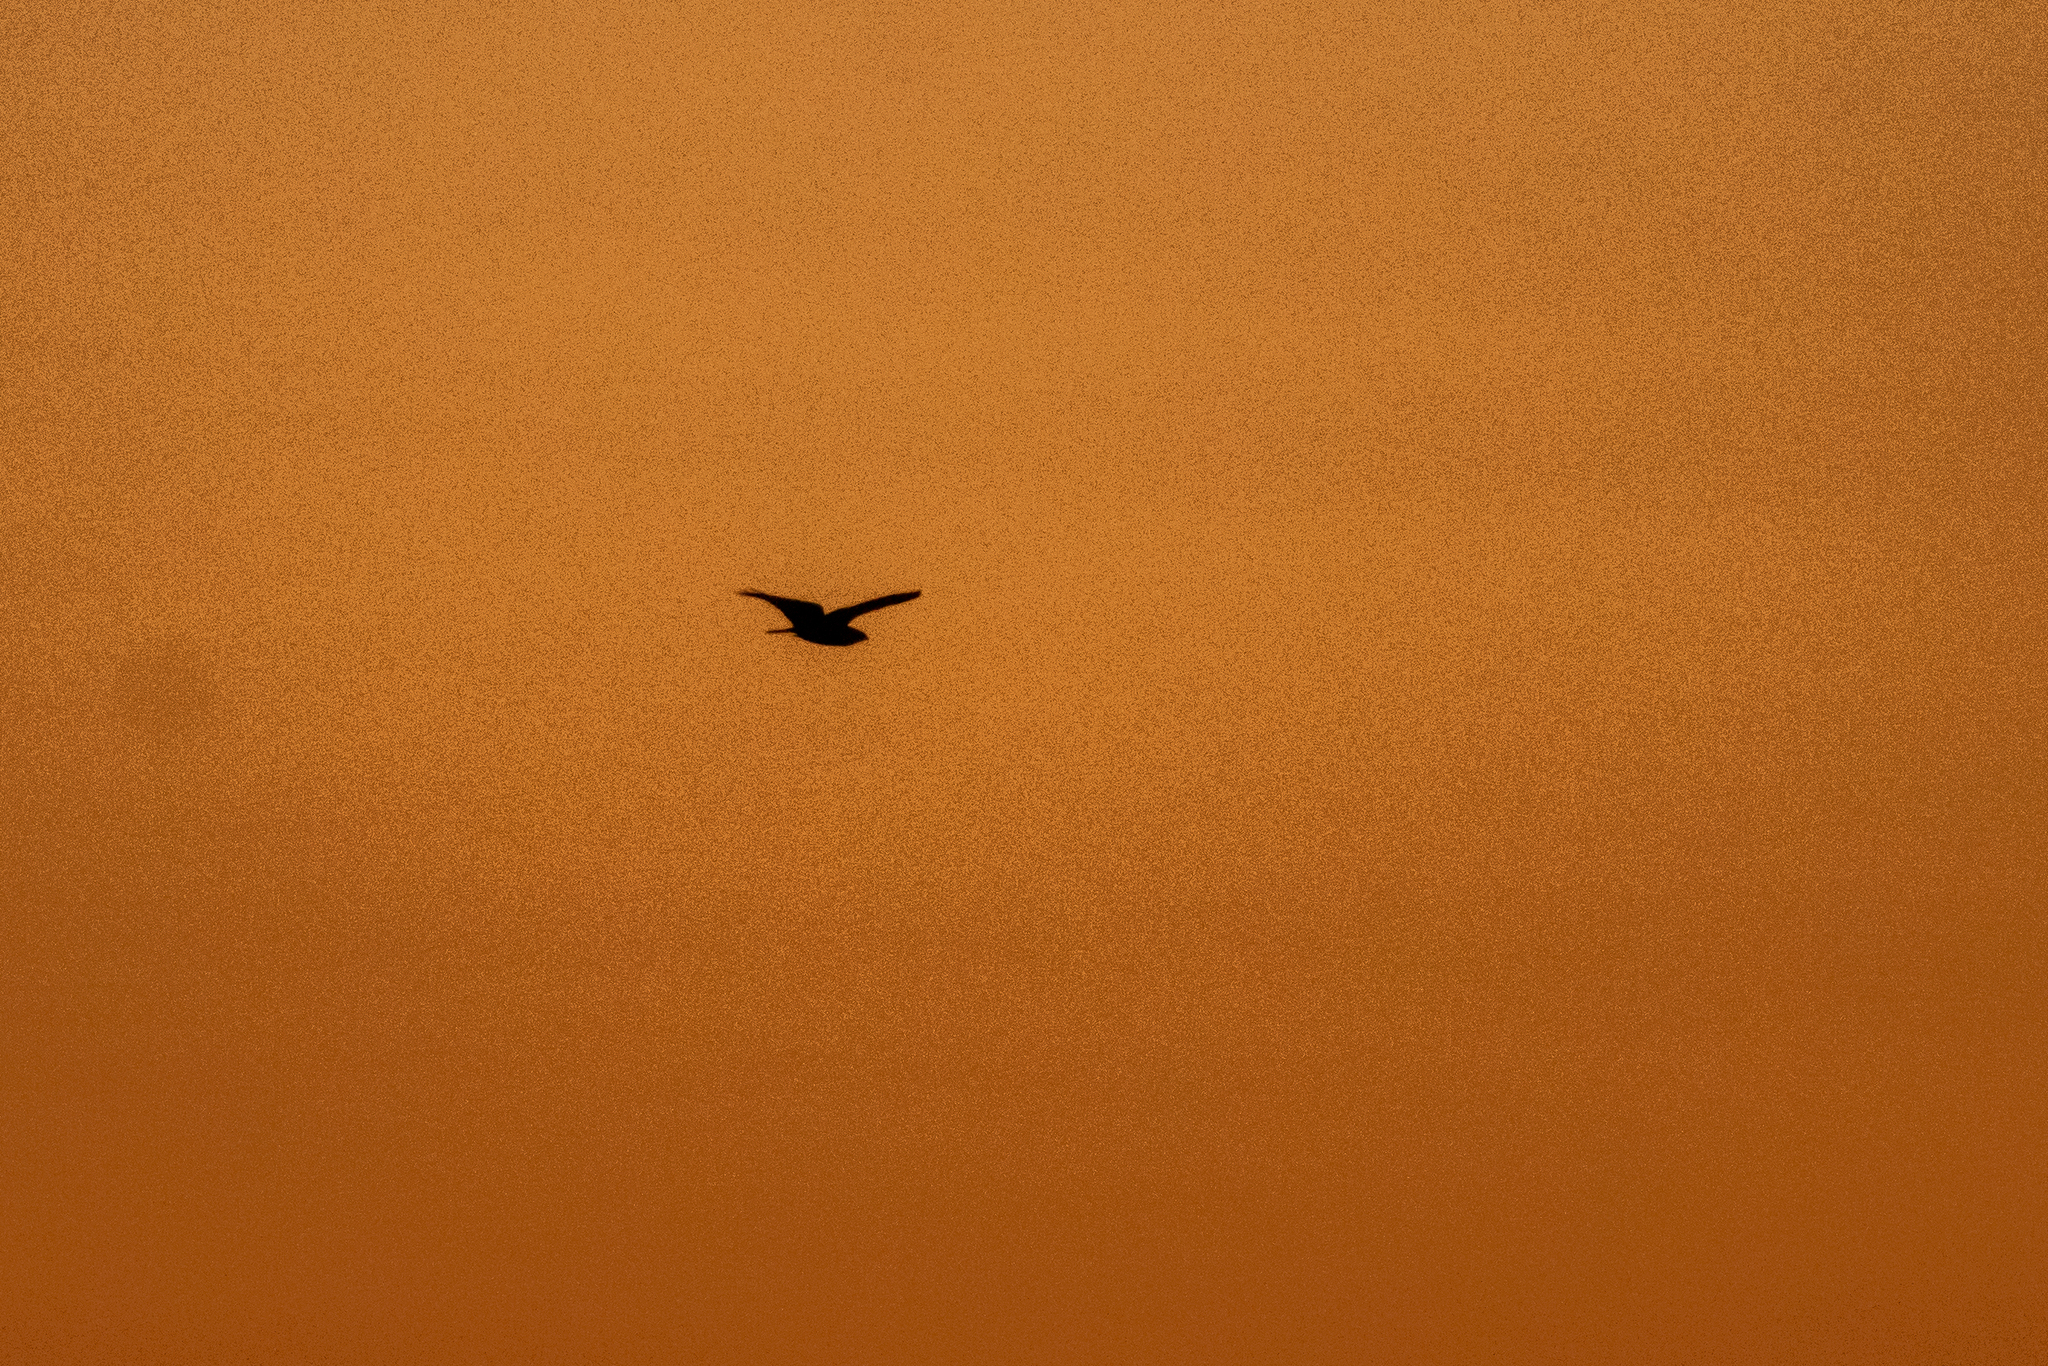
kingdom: Animalia
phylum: Chordata
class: Aves
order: Caprimulgiformes
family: Caprimulgidae
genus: Chordeiles
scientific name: Chordeiles nacunda
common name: Nacunda nighthawk
